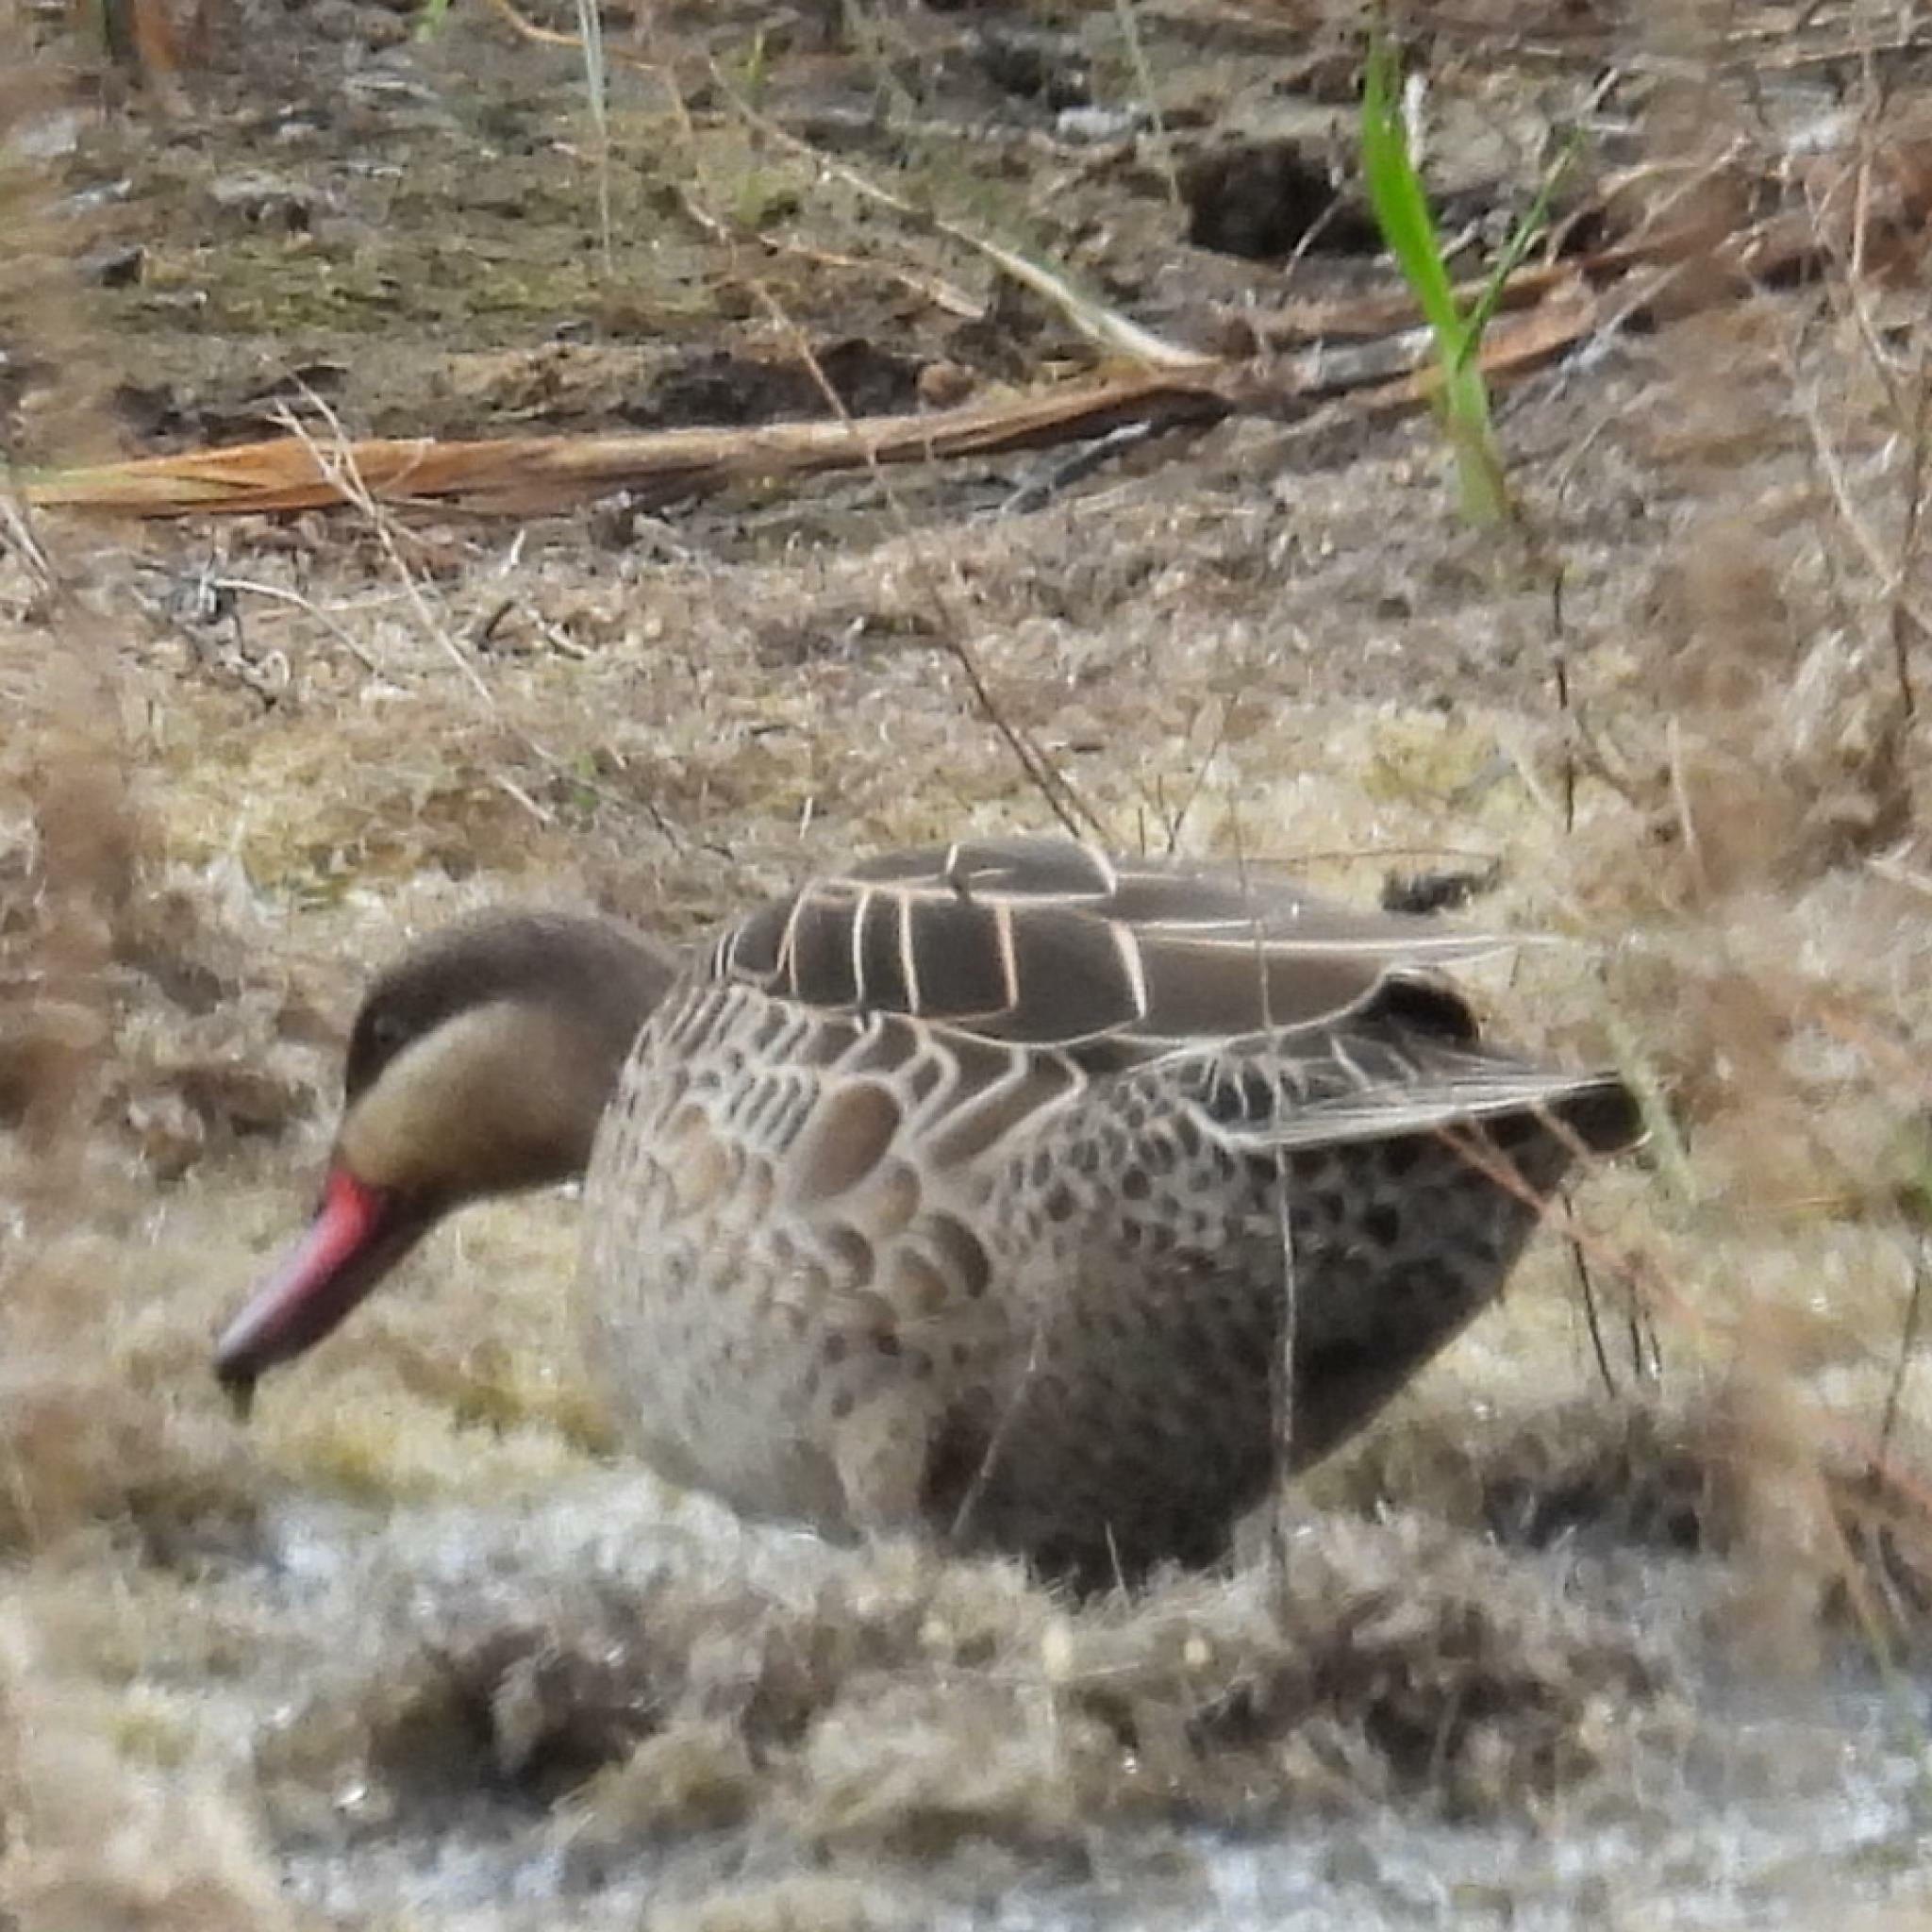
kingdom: Animalia
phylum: Chordata
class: Aves
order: Anseriformes
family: Anatidae
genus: Anas
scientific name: Anas erythrorhyncha
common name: Red-billed teal
